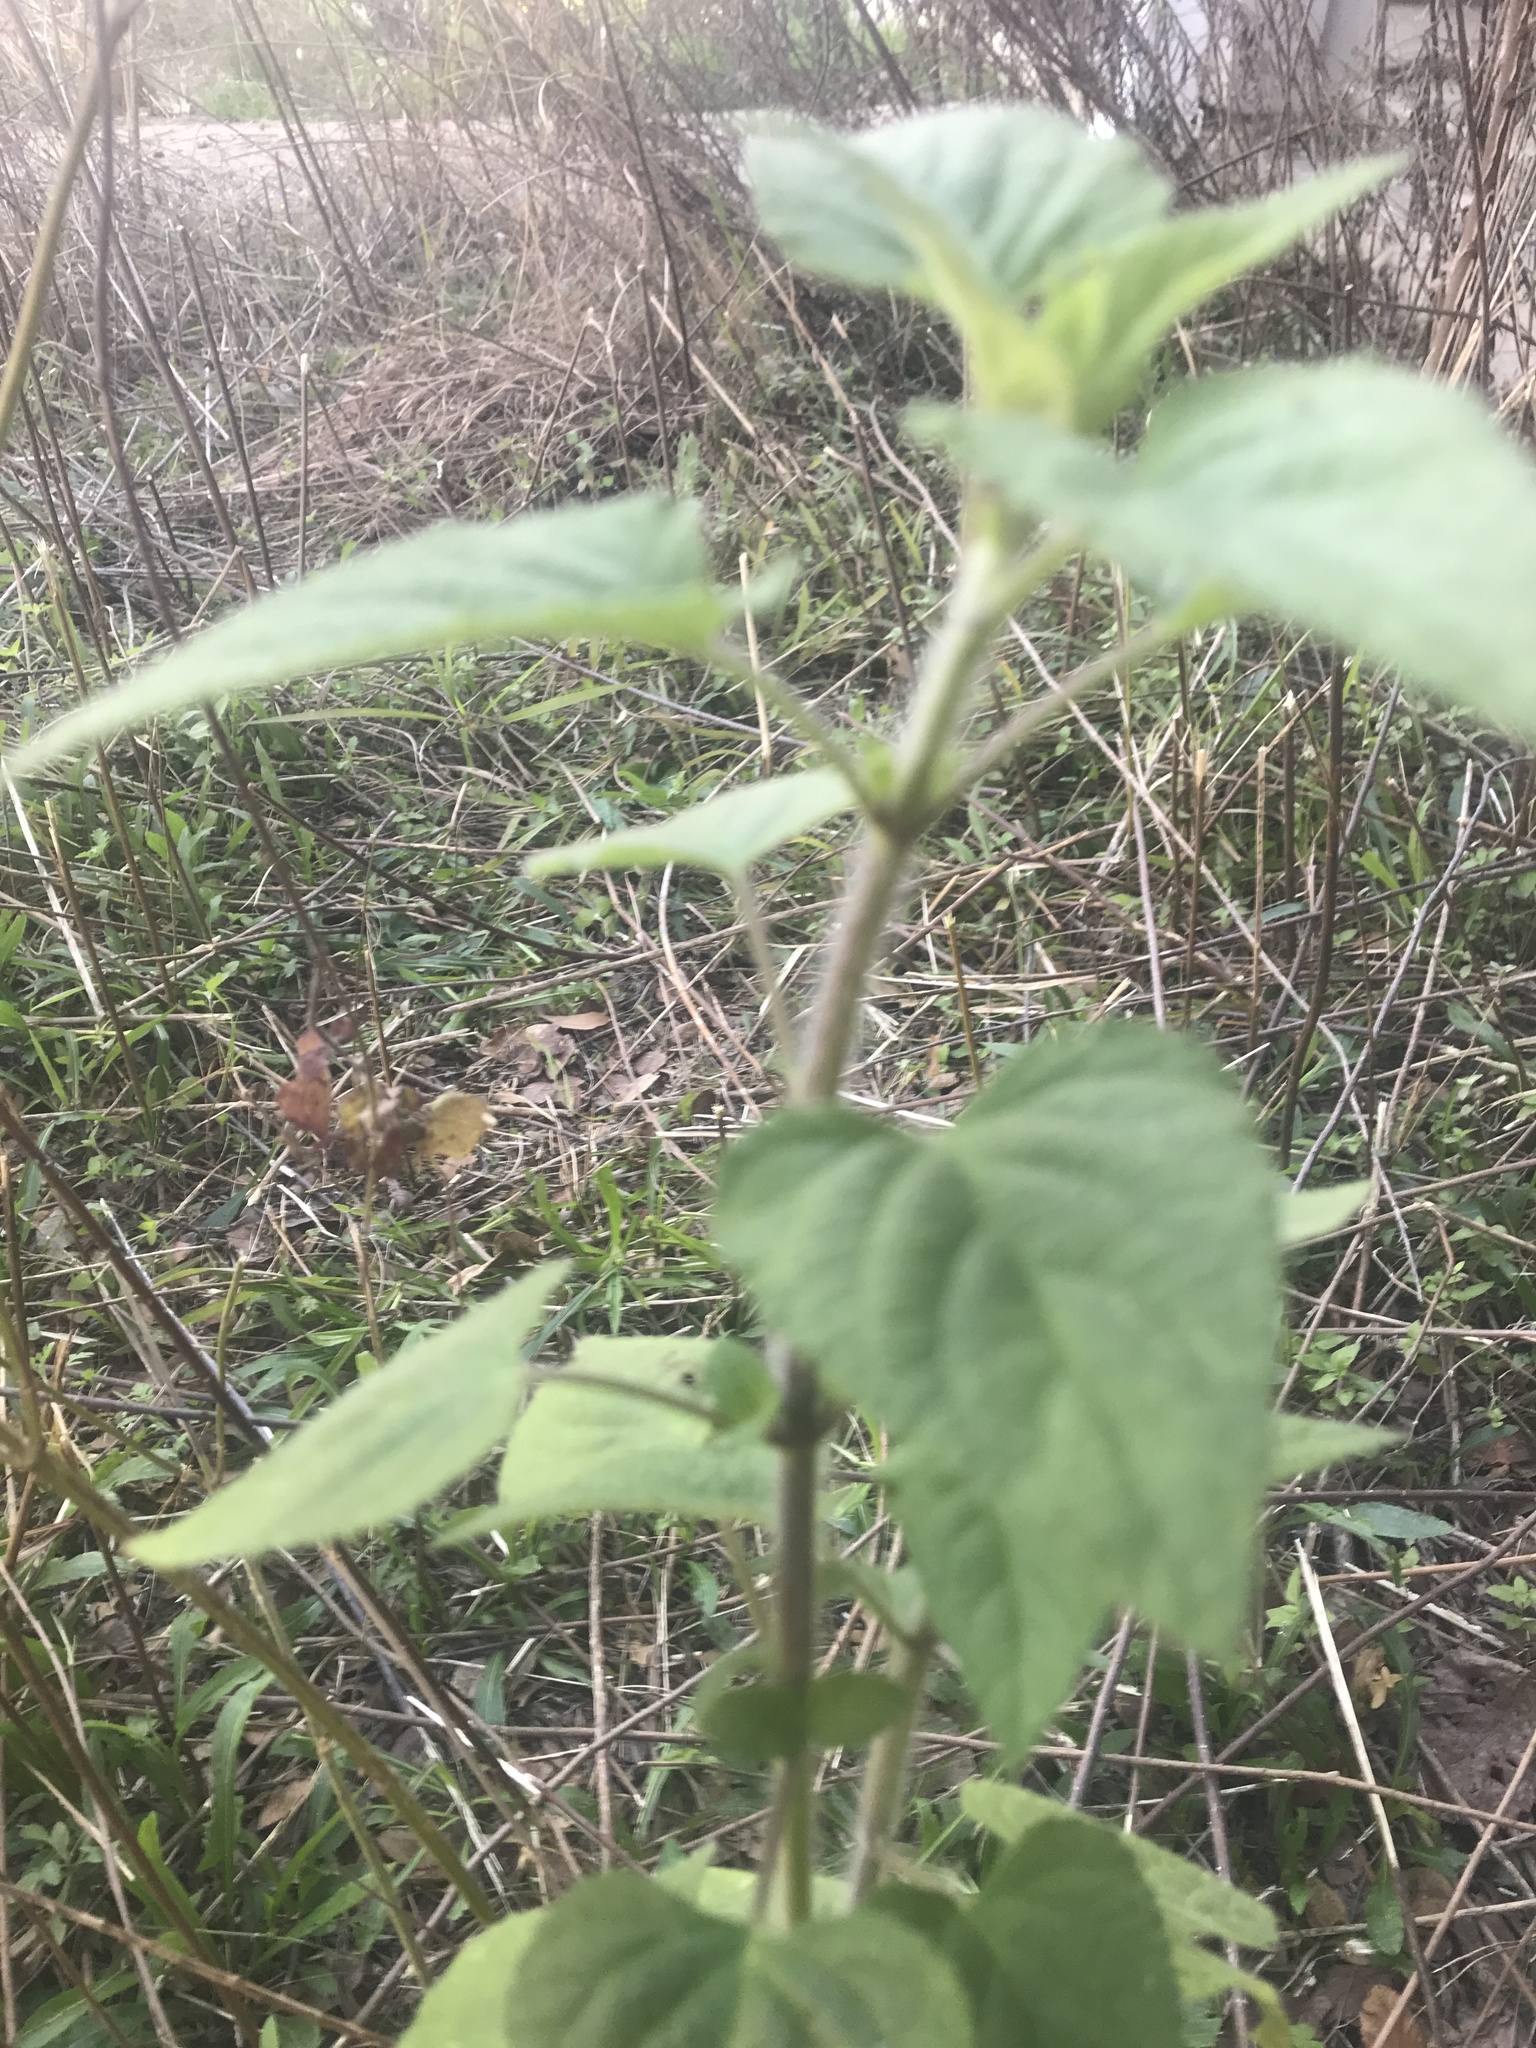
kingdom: Plantae
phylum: Tracheophyta
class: Magnoliopsida
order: Lamiales
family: Lamiaceae
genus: Salvia
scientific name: Salvia coccinea
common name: Blood sage
